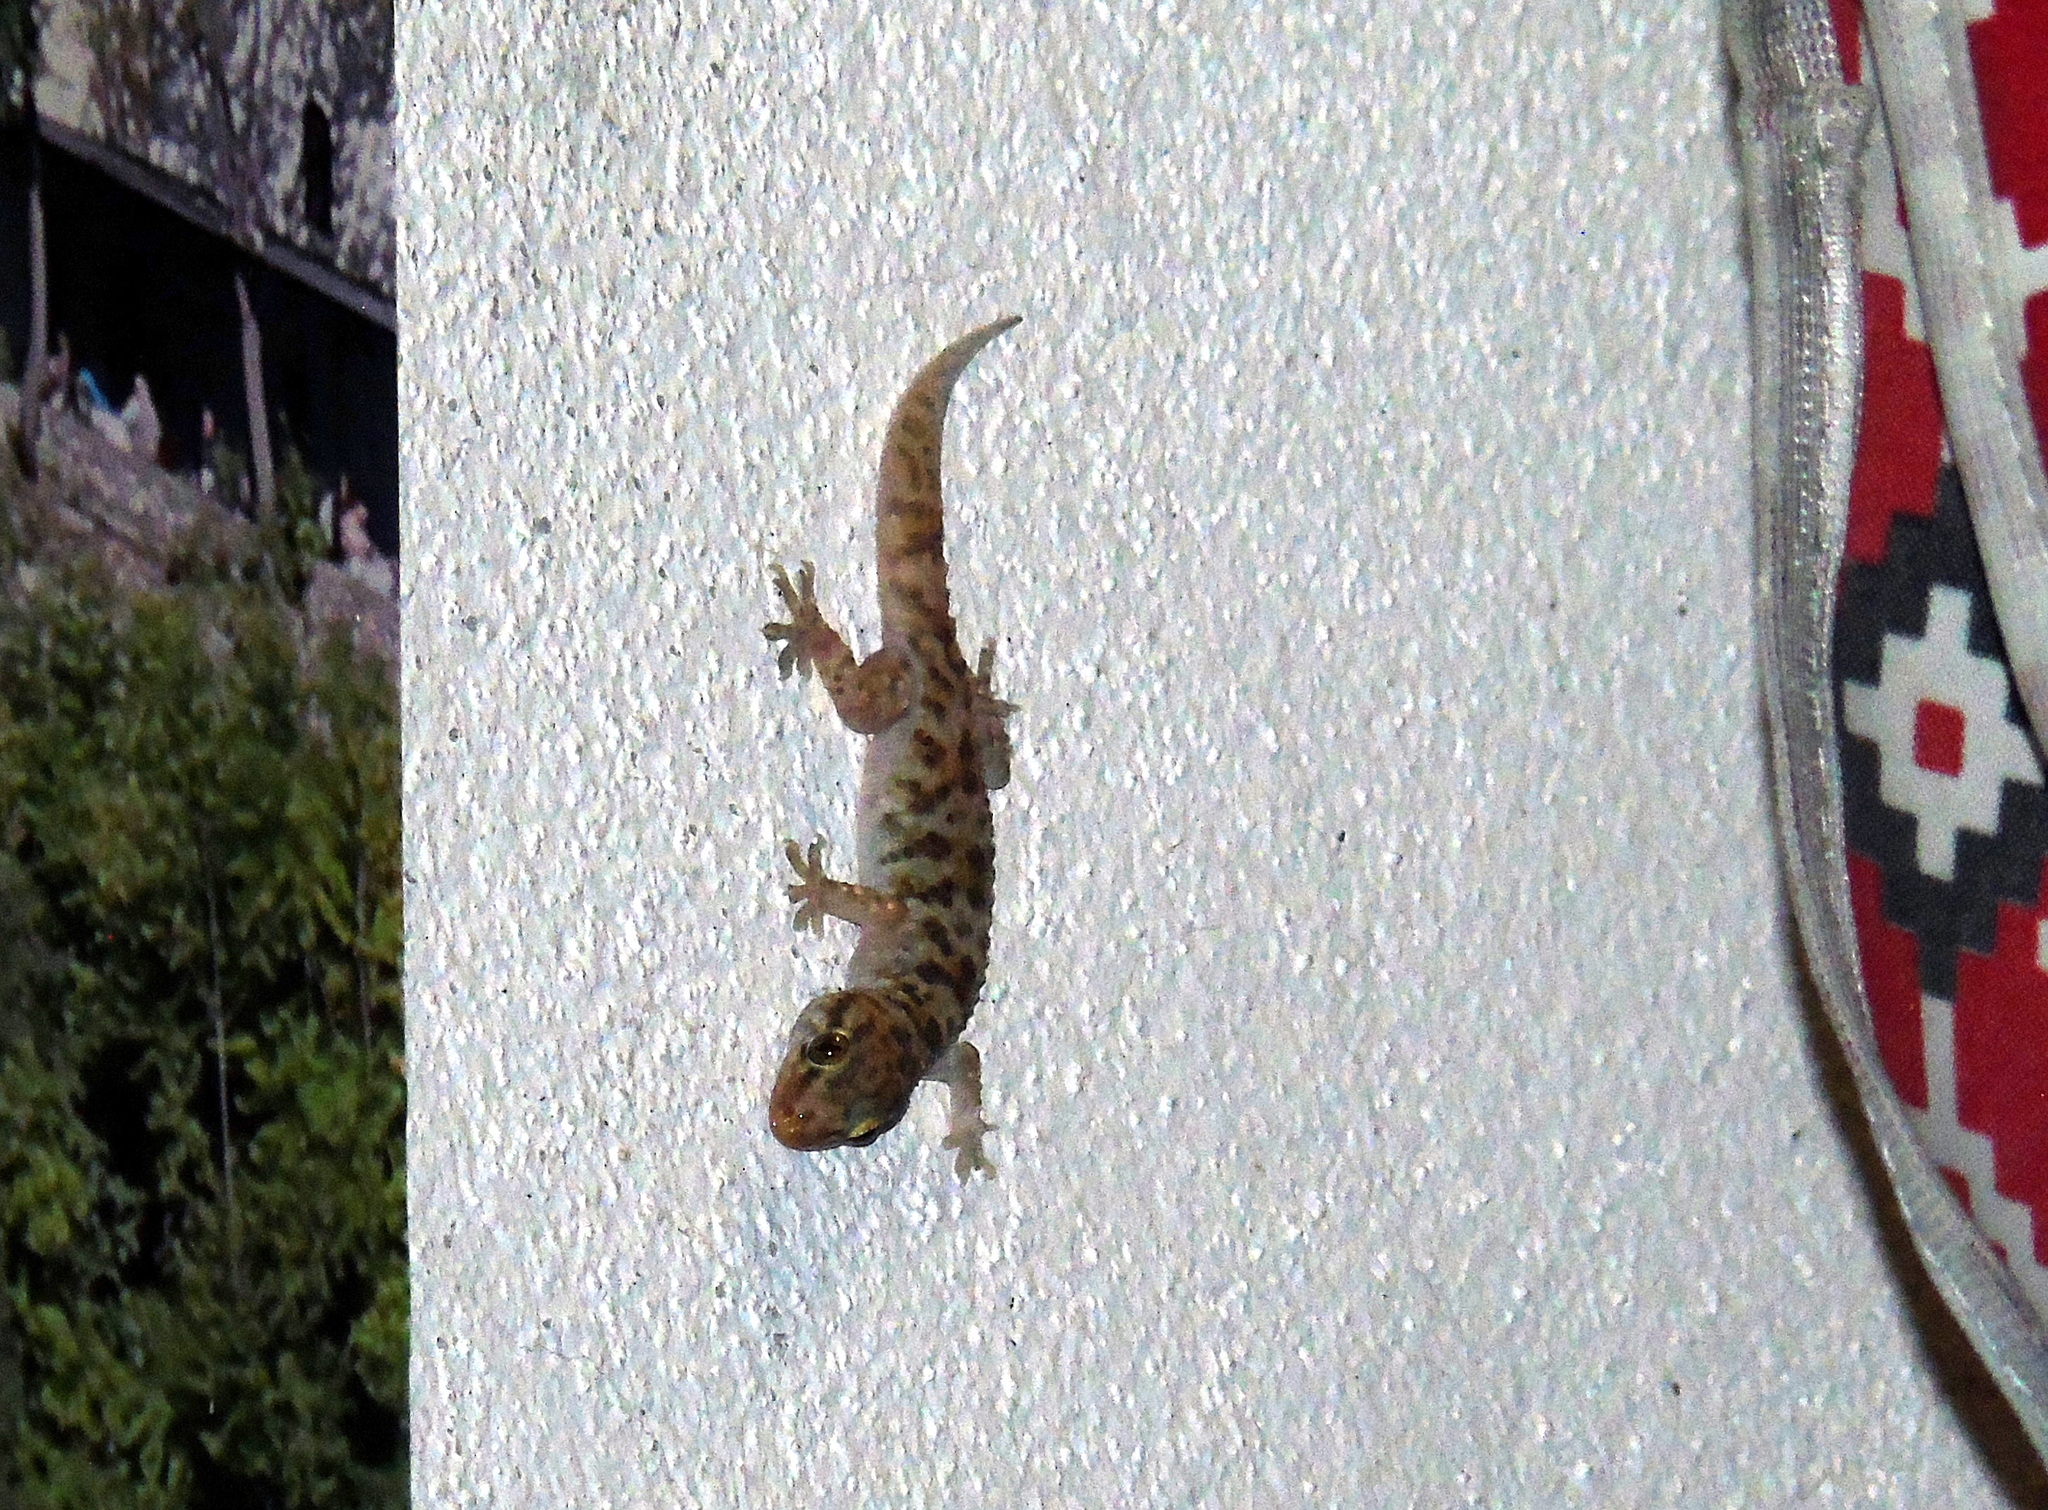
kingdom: Animalia
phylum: Chordata
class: Squamata
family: Gekkonidae
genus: Hemidactylus
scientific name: Hemidactylus turcicus
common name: Turkish gecko
